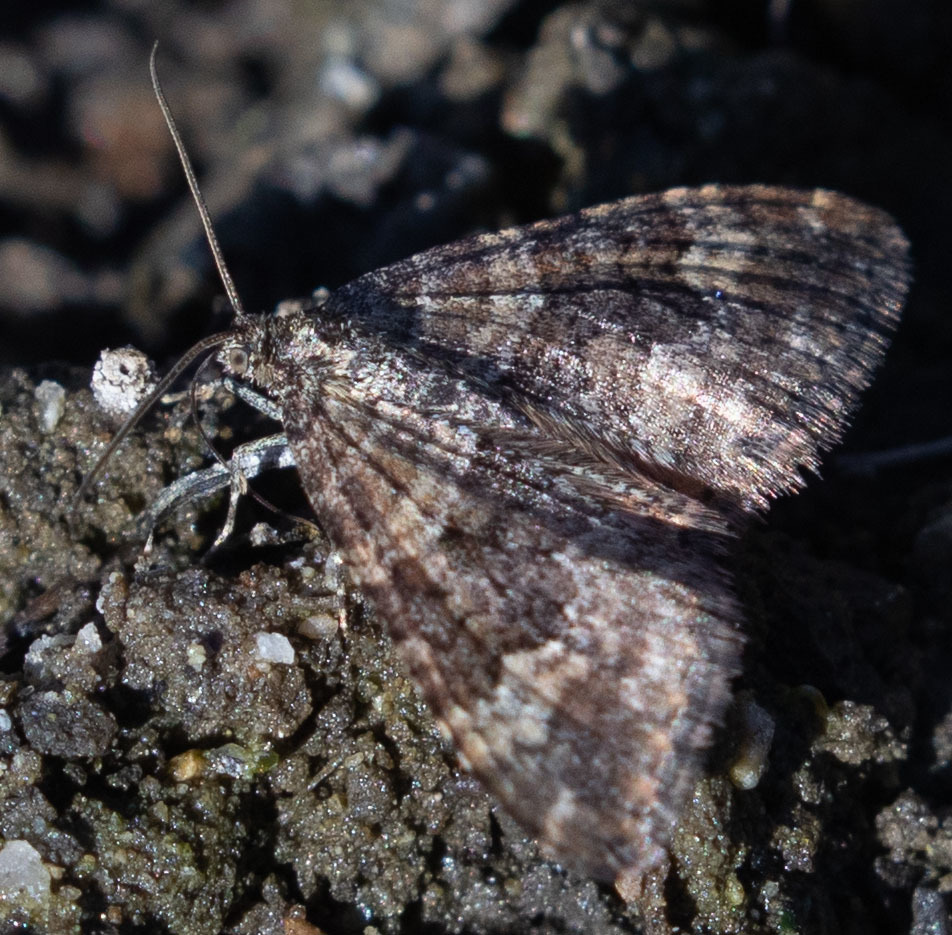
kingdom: Animalia
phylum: Arthropoda
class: Insecta
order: Lepidoptera
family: Geometridae
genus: Epirrhoe
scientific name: Epirrhoe plebeculata
